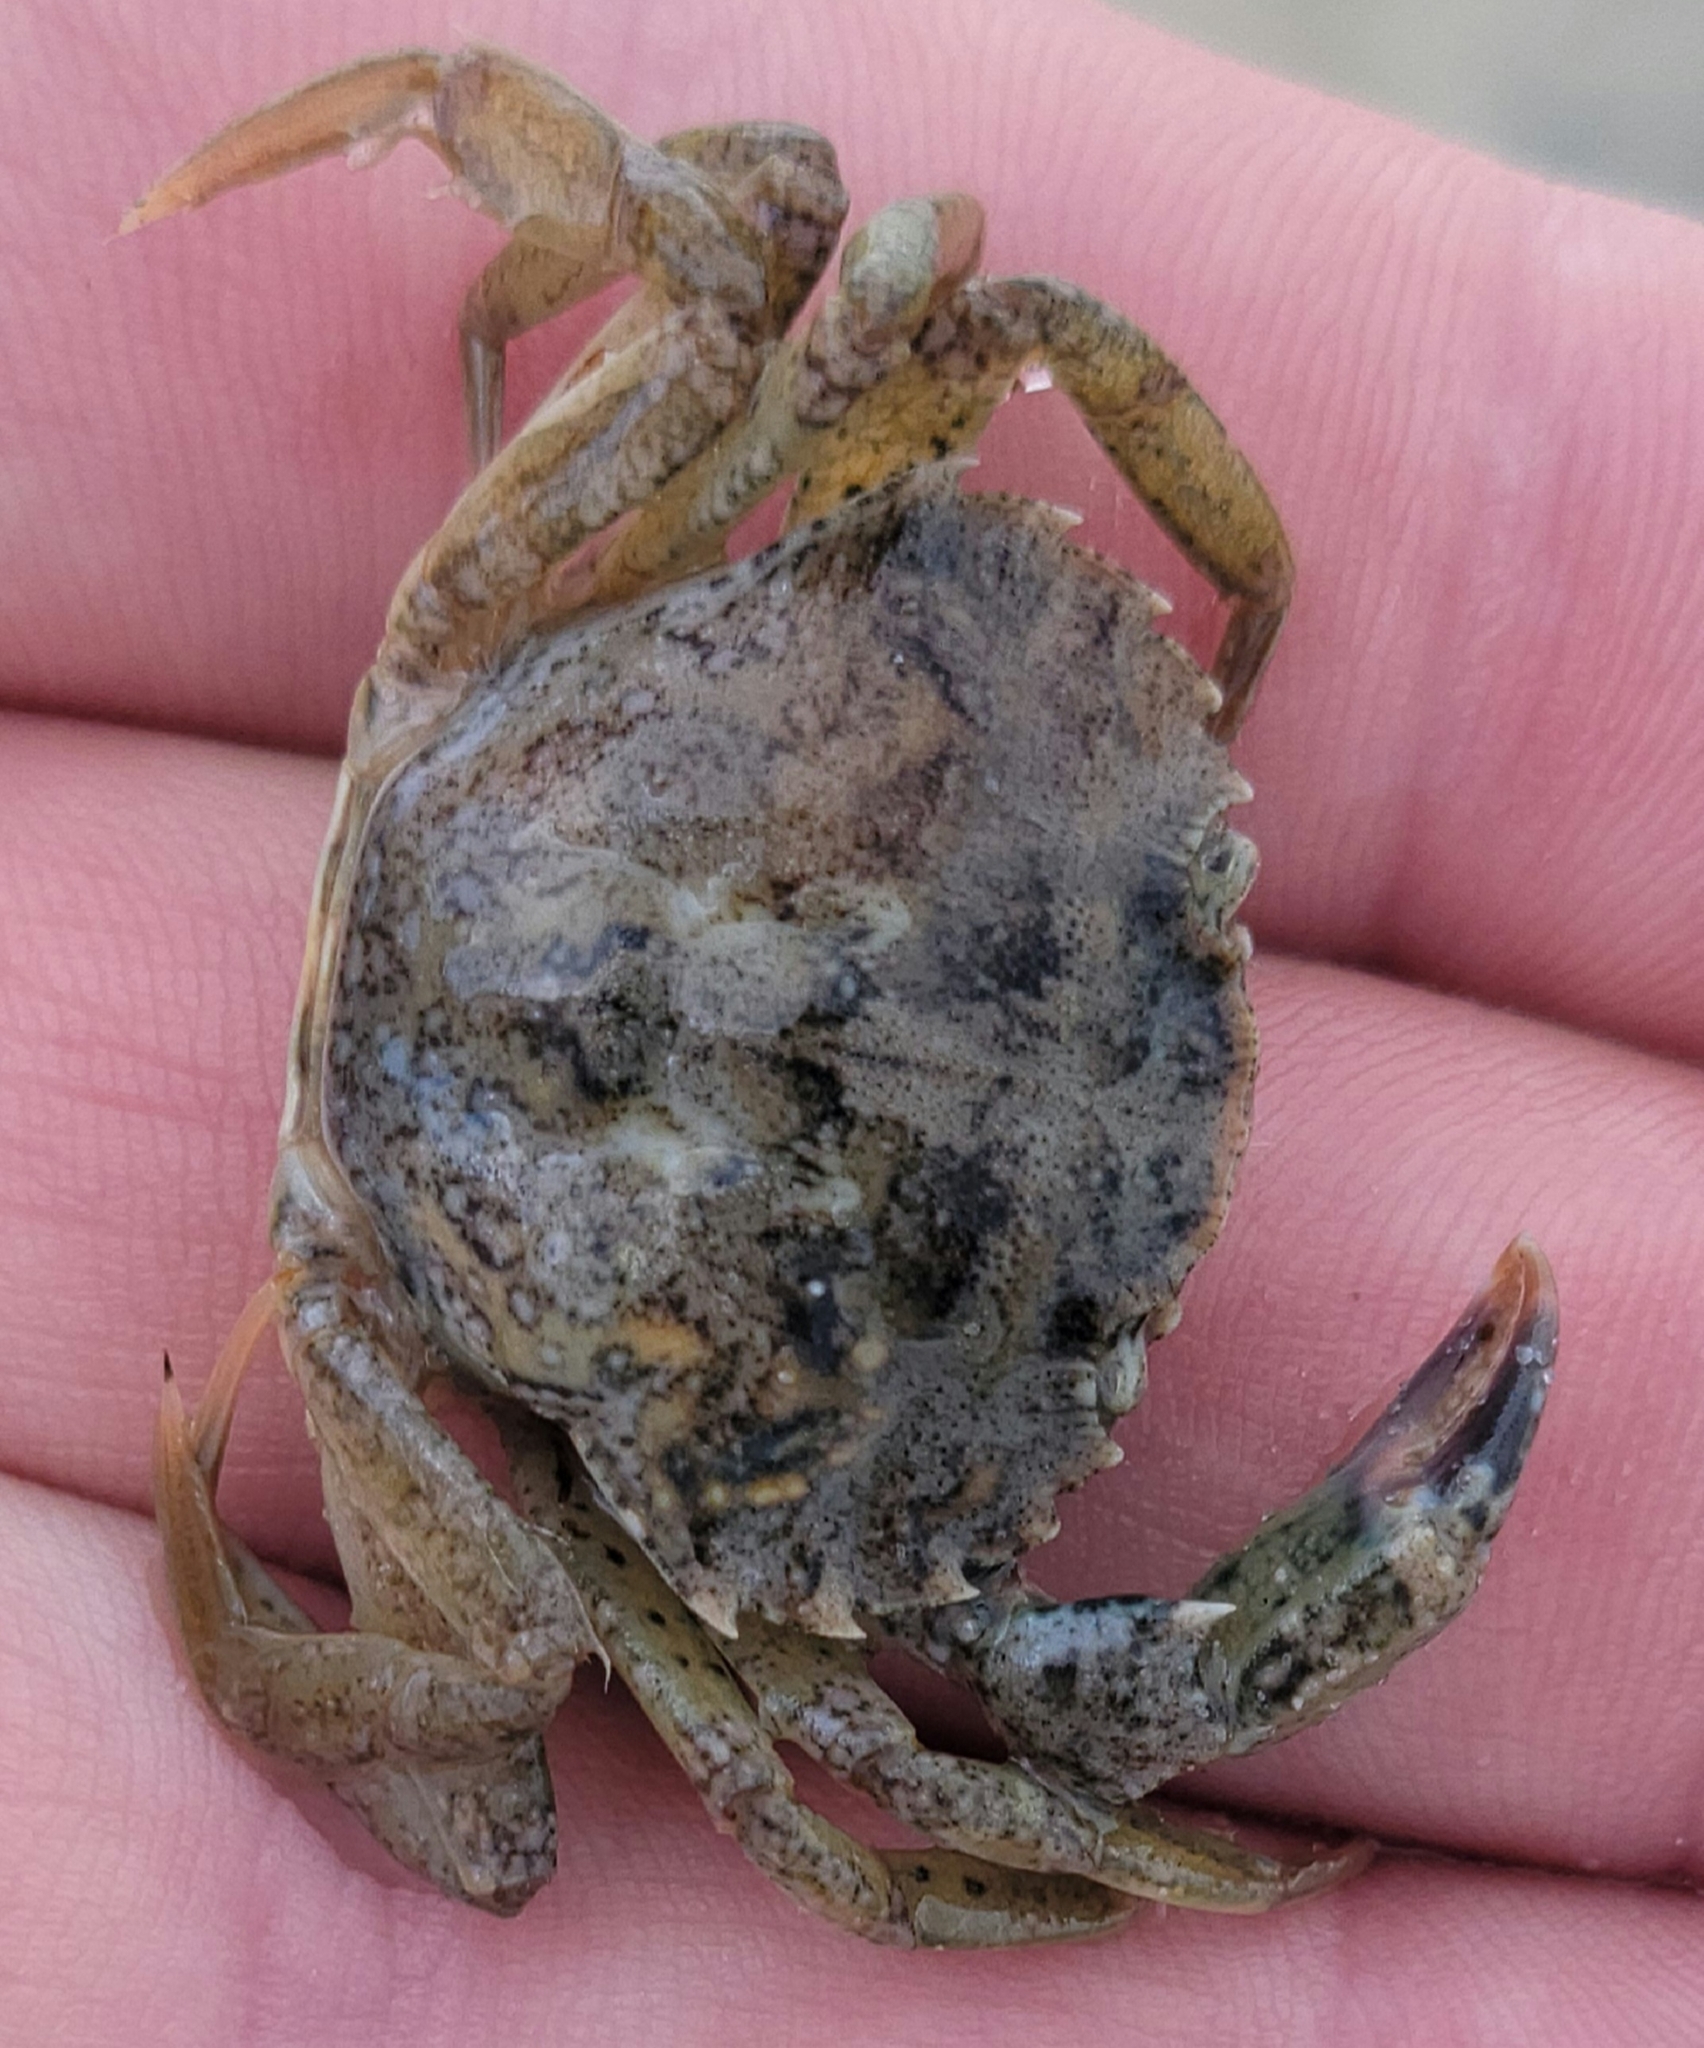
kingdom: Animalia
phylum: Arthropoda
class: Malacostraca
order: Decapoda
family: Carcinidae
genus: Carcinus
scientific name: Carcinus maenas
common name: European green crab
